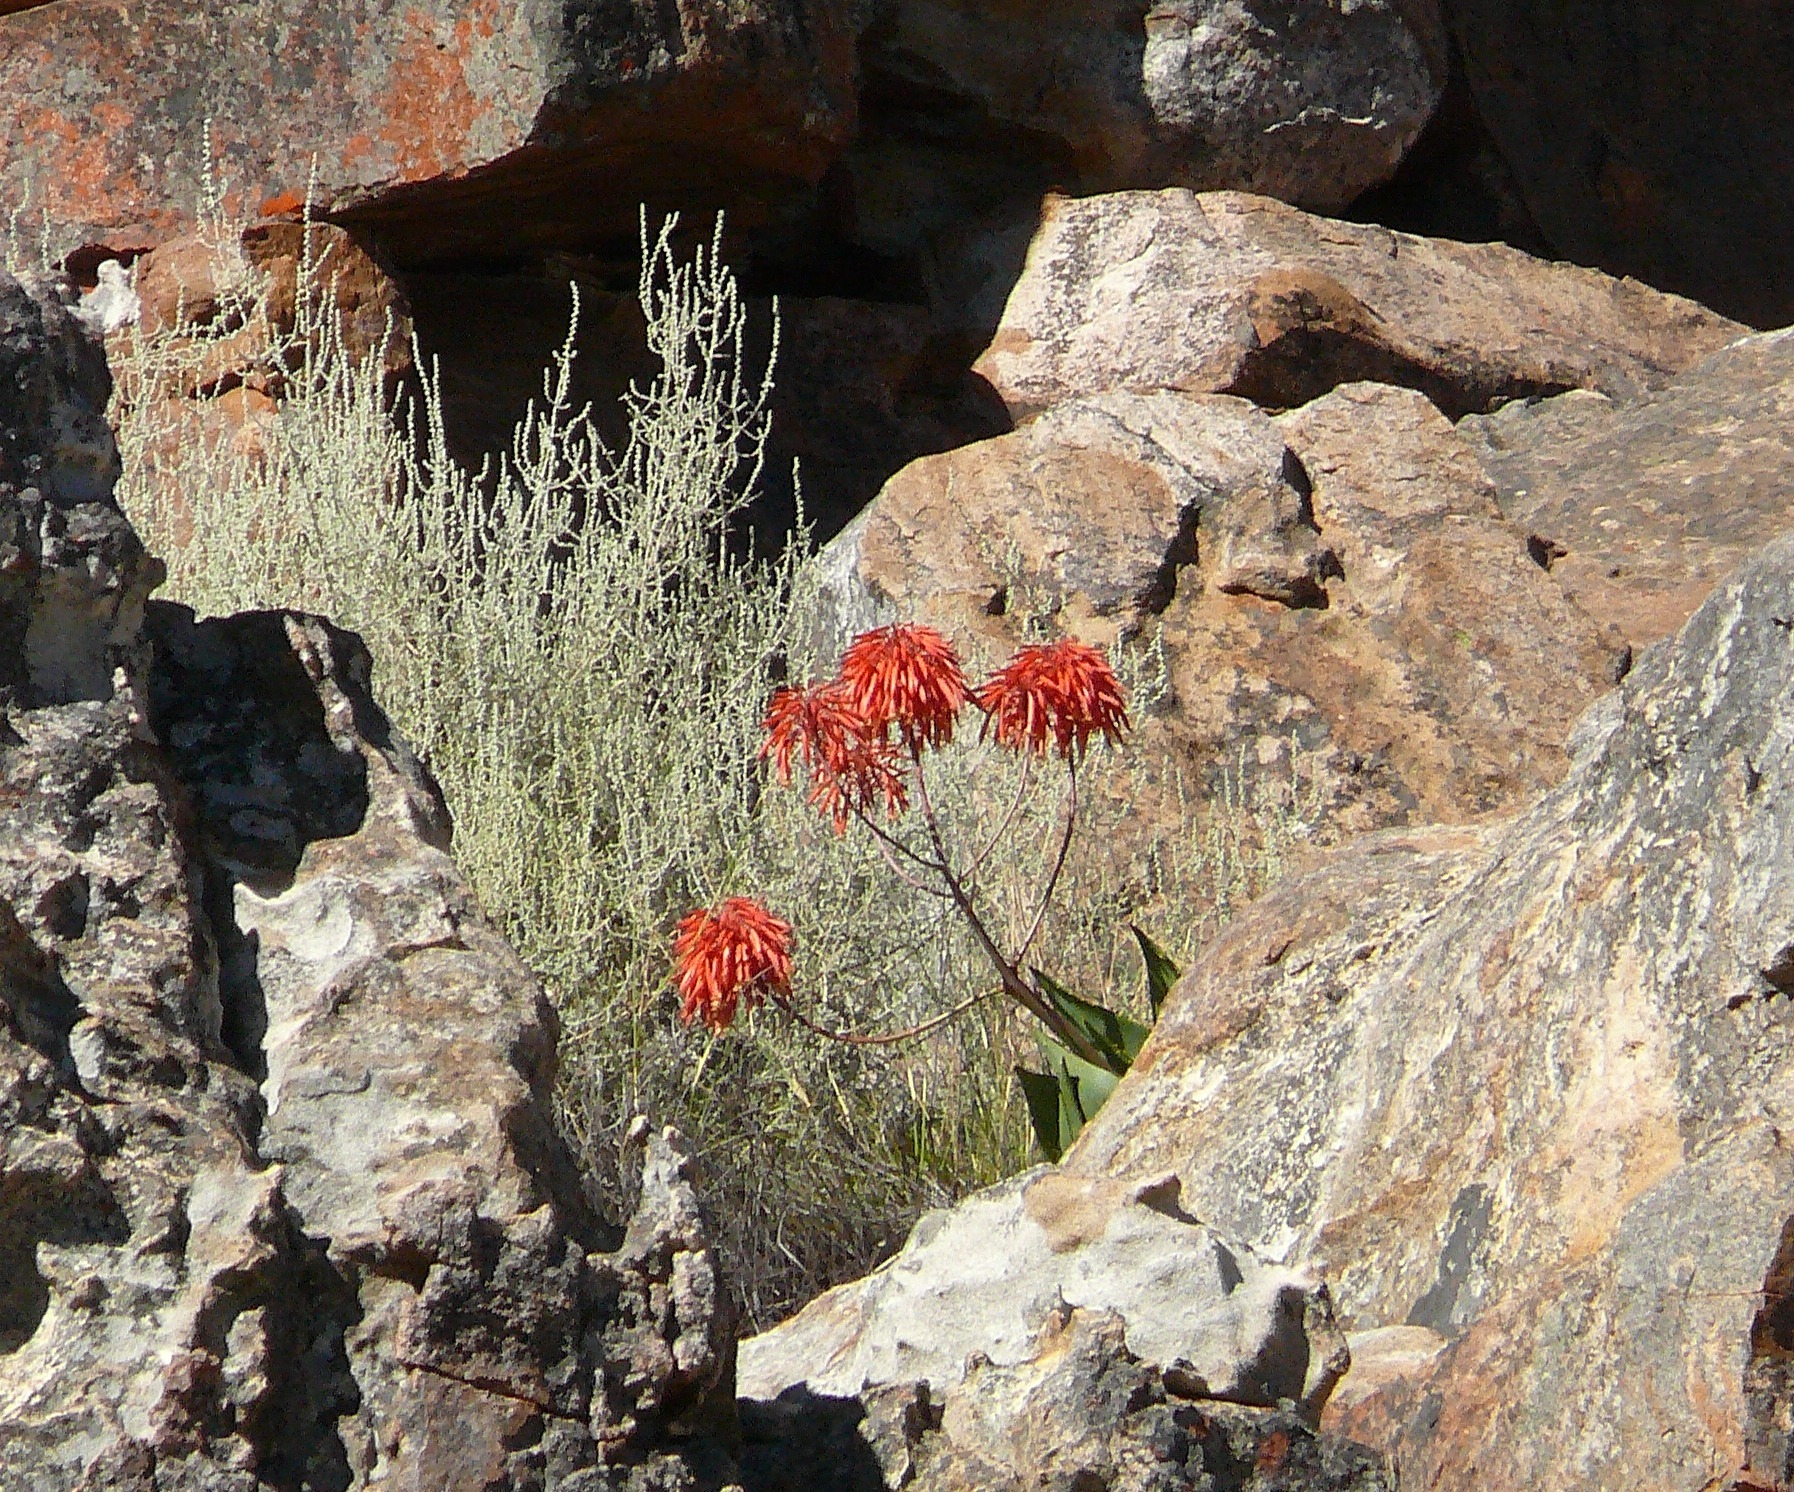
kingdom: Plantae
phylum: Tracheophyta
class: Liliopsida
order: Asparagales
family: Asphodelaceae
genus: Aloe
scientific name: Aloe perfoliata
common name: Mitra aloe
